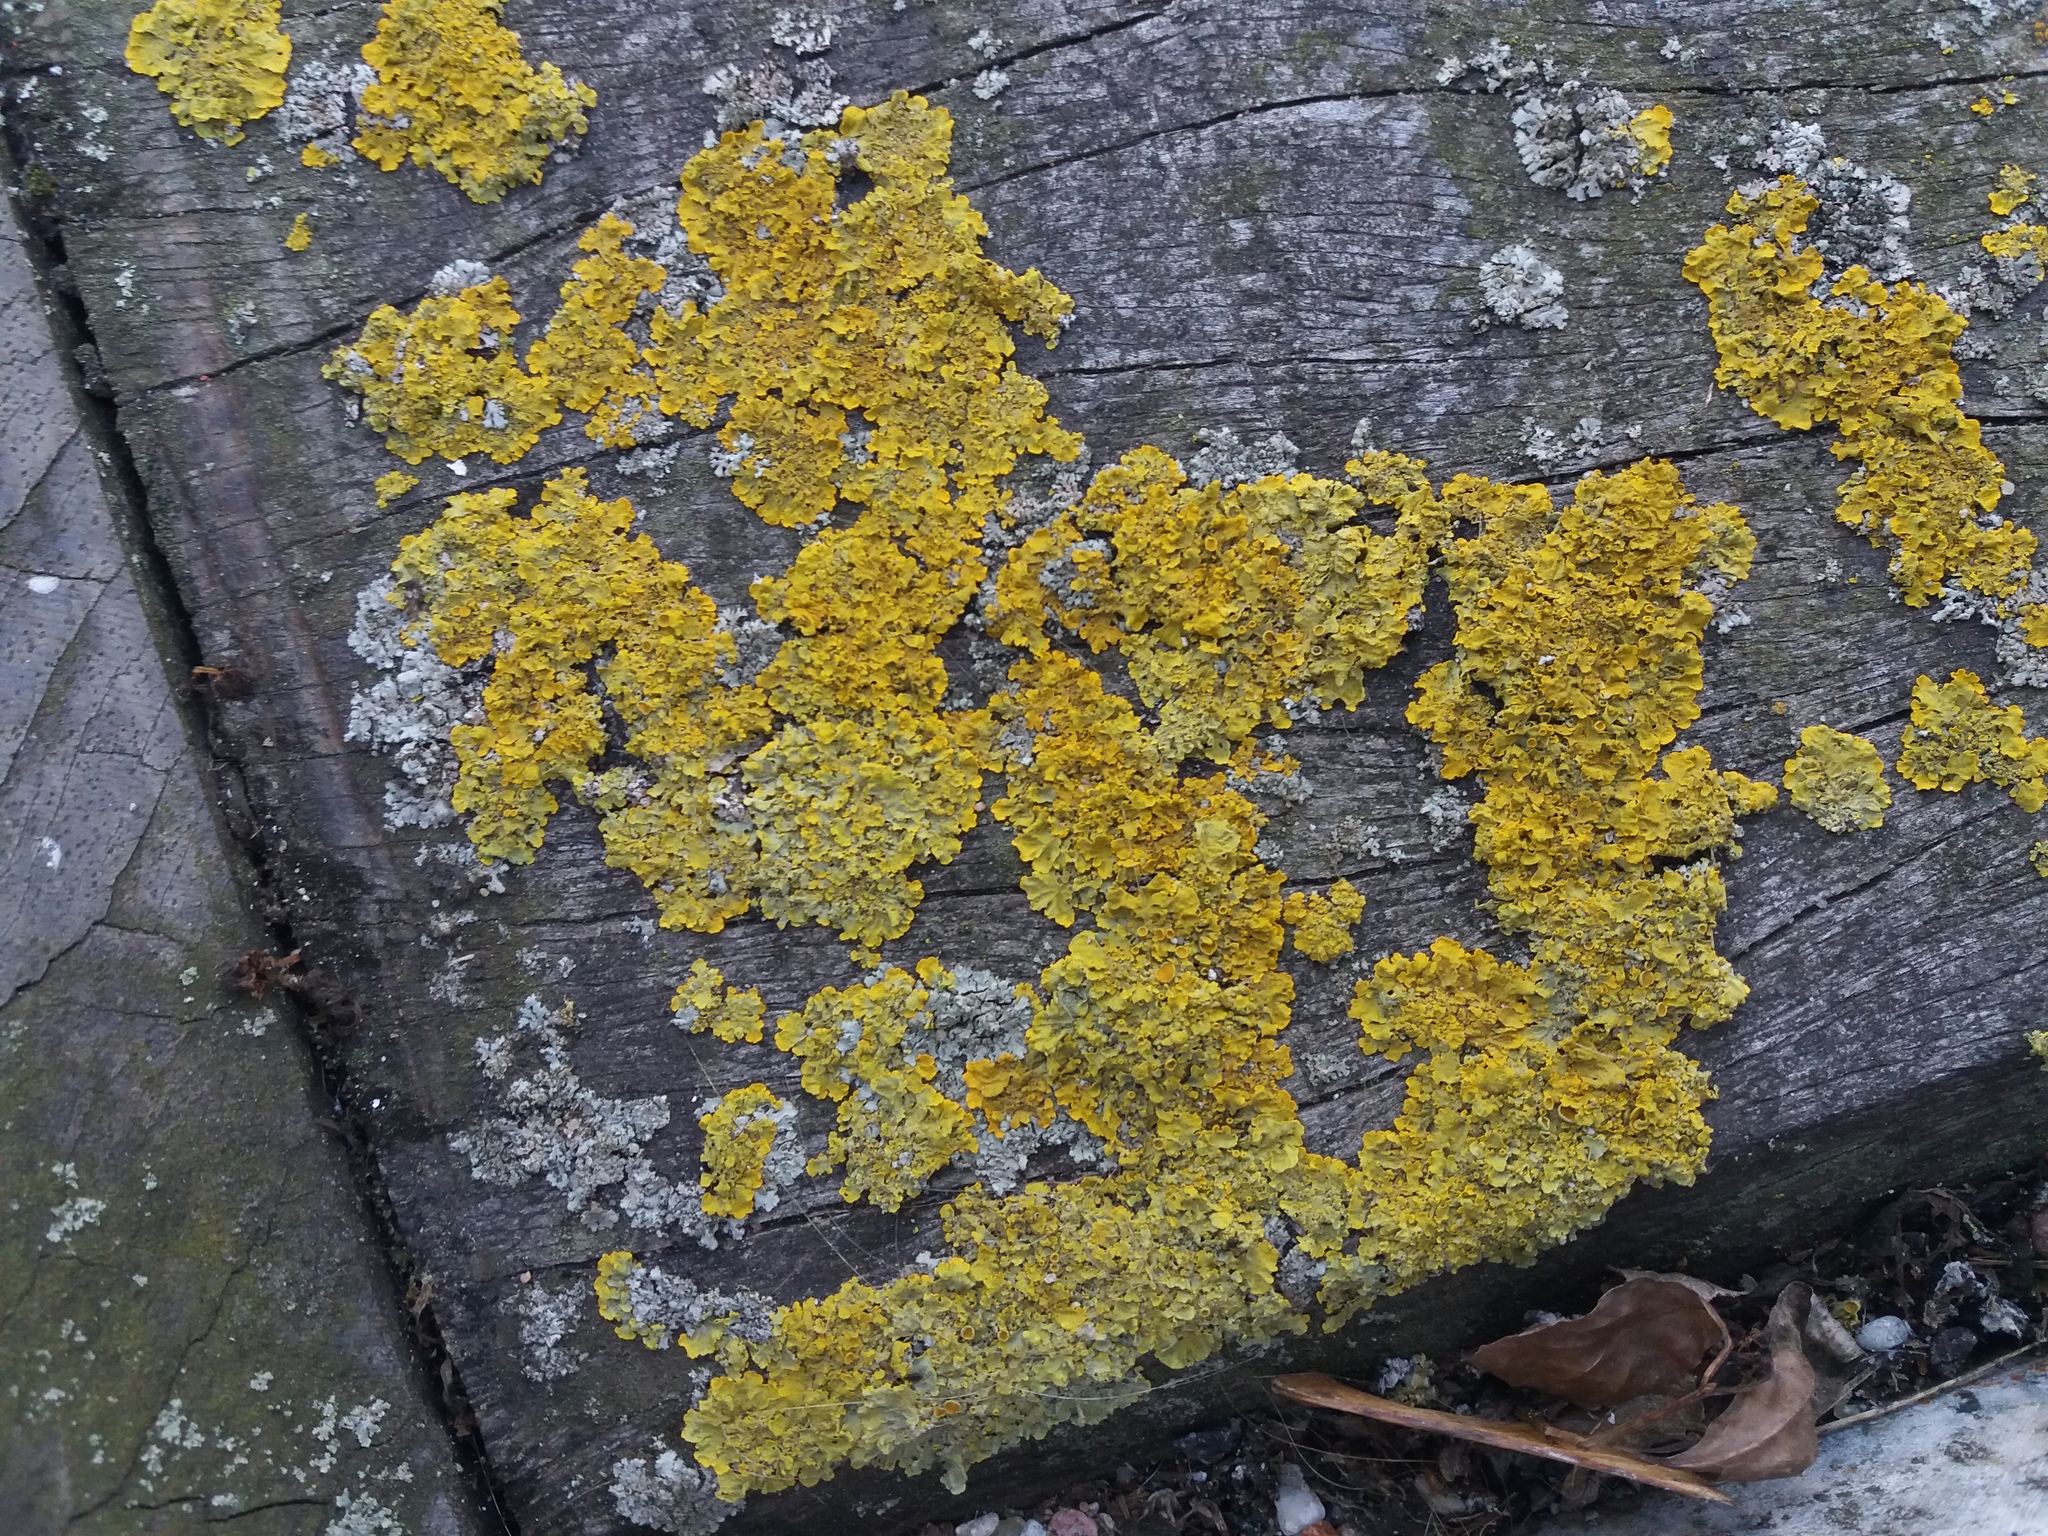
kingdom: Fungi
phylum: Ascomycota
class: Lecanoromycetes
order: Teloschistales
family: Teloschistaceae
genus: Xanthoria
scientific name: Xanthoria parietina
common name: Common orange lichen
